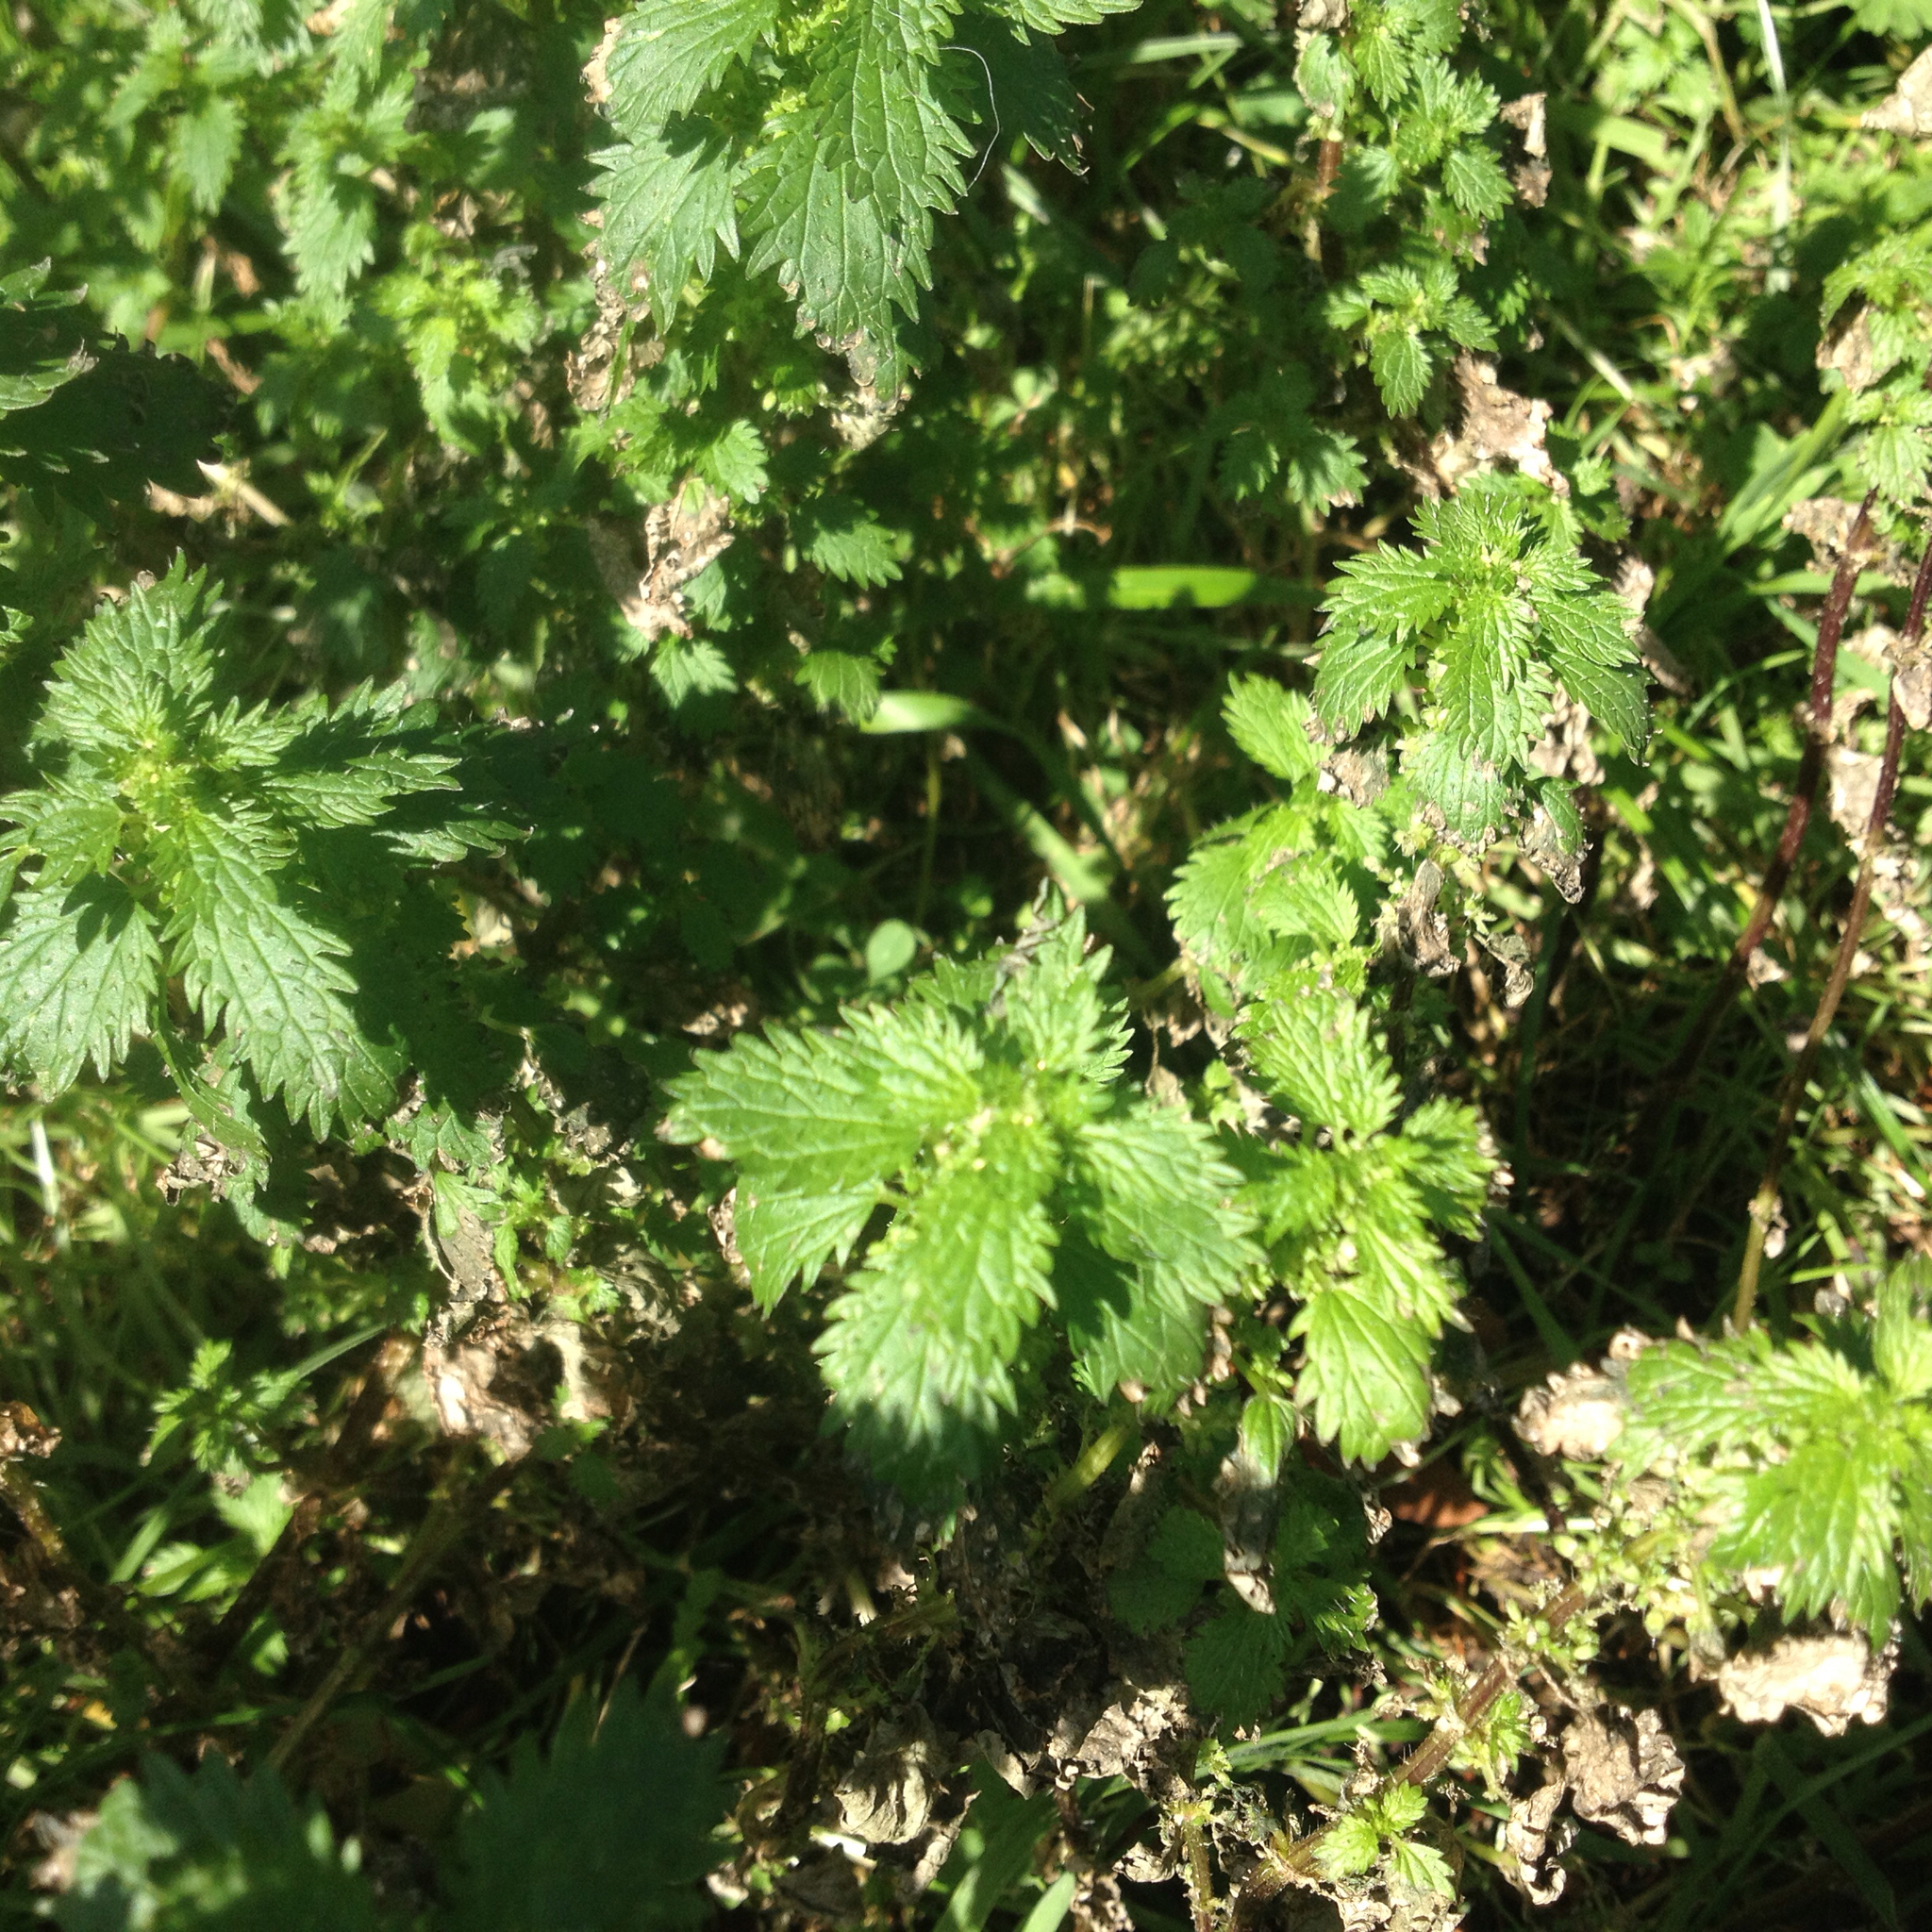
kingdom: Plantae
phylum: Tracheophyta
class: Magnoliopsida
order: Rosales
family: Urticaceae
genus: Urtica
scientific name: Urtica urens
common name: Dwarf nettle
